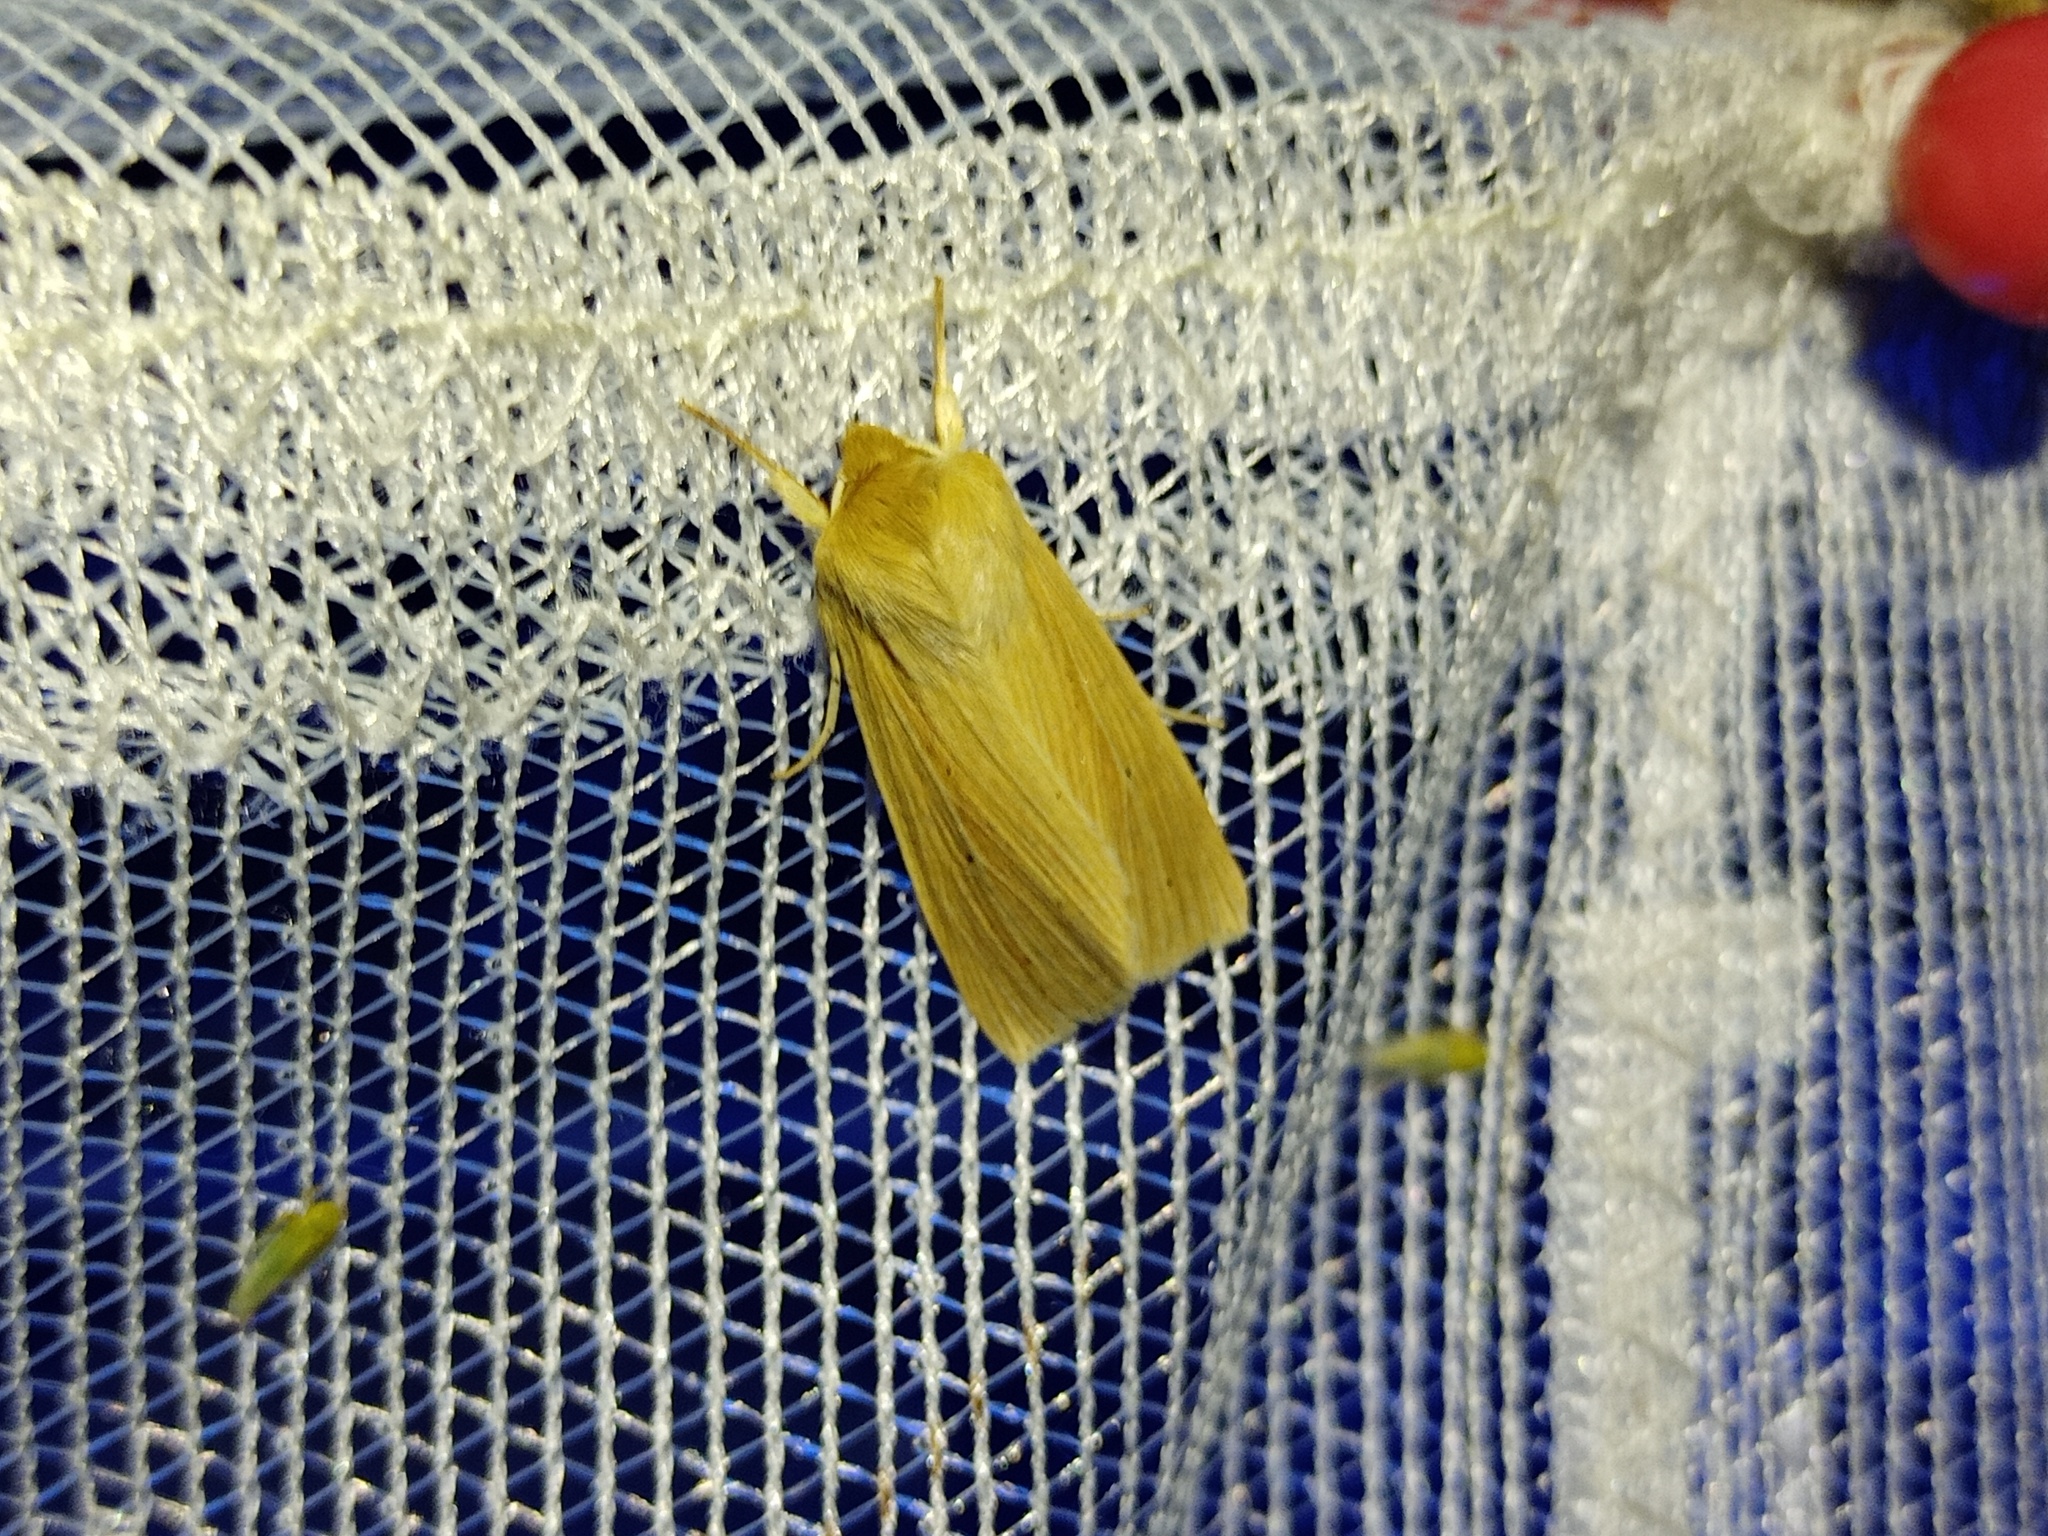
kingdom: Animalia
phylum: Arthropoda
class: Insecta
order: Lepidoptera
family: Noctuidae
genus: Mythimna
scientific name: Mythimna pallens
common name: Common wainscot
